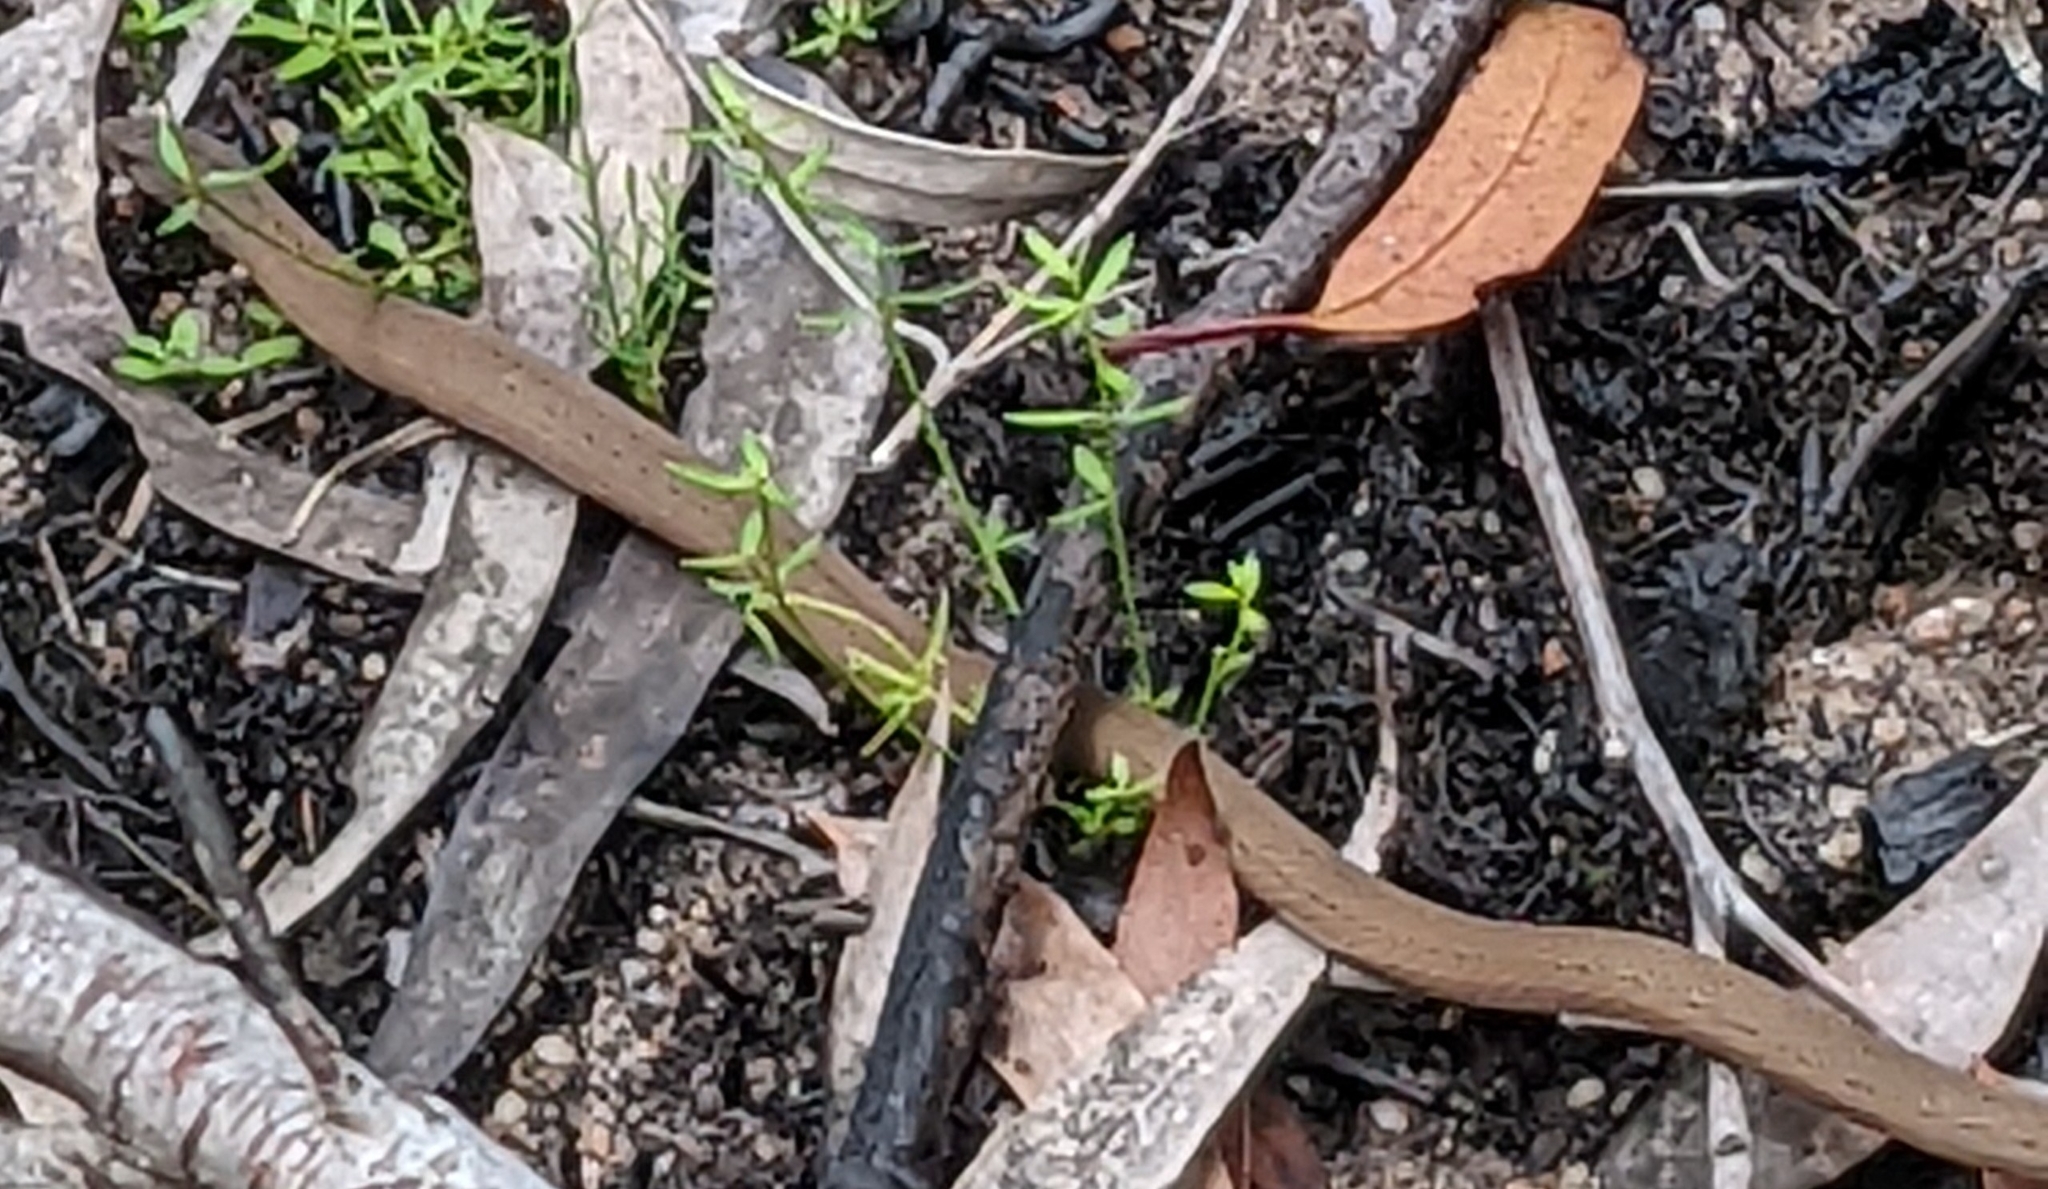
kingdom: Animalia
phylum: Chordata
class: Squamata
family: Pygopodidae
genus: Pygopus
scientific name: Pygopus lepidopodus
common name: Southern scaly-foot
